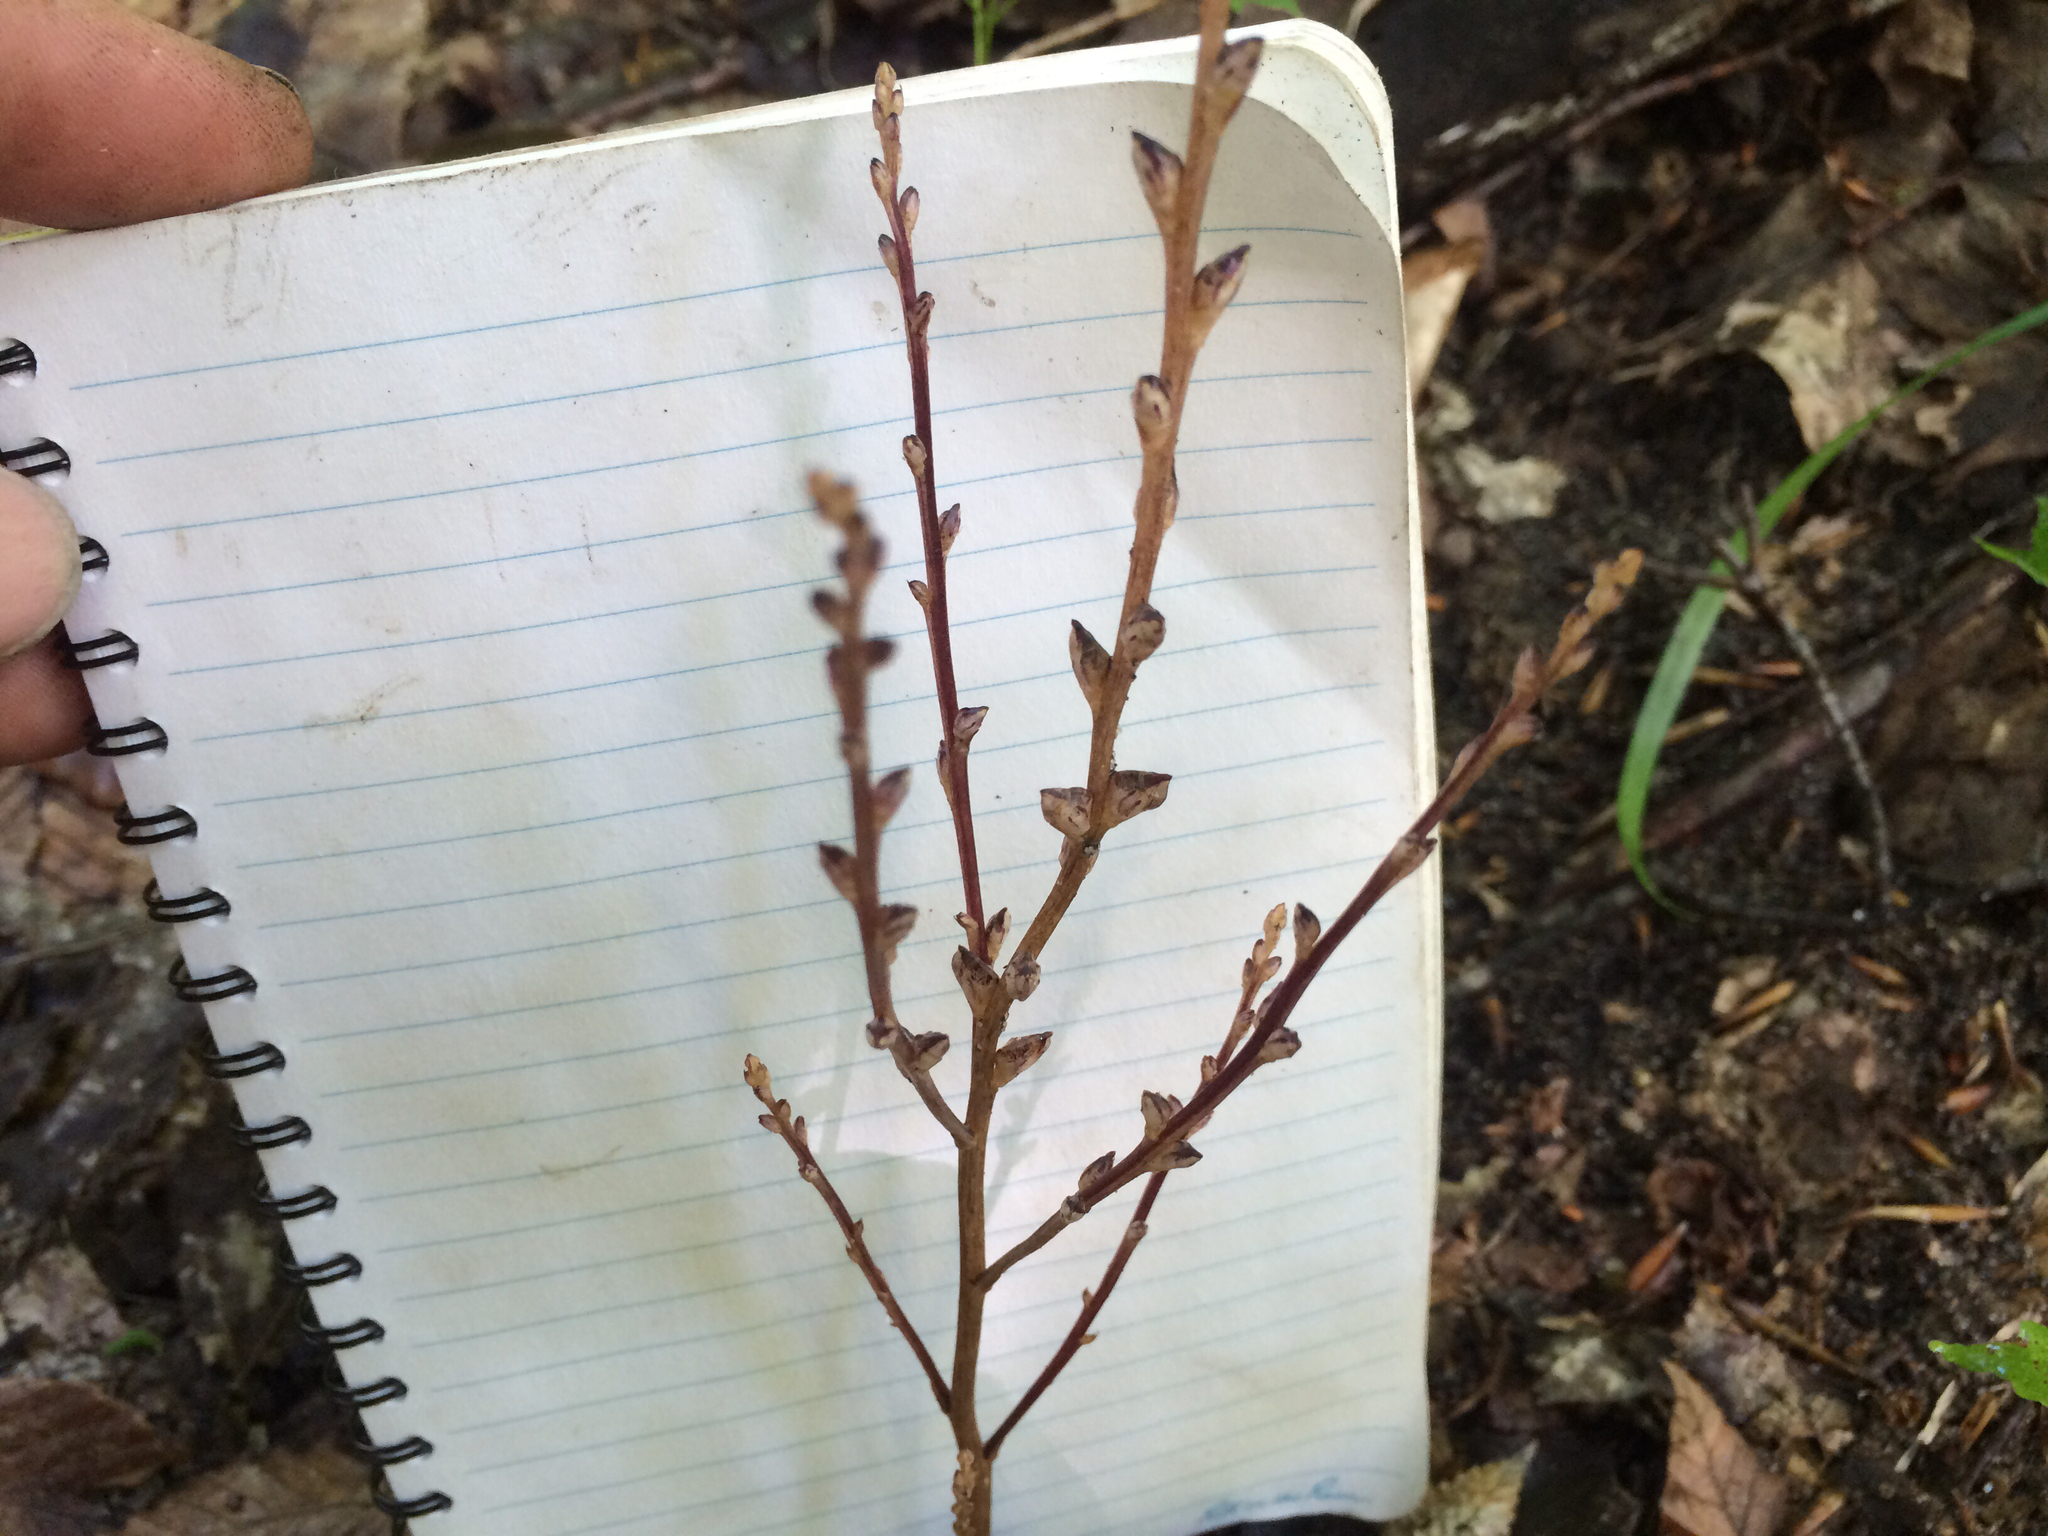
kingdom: Plantae
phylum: Tracheophyta
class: Magnoliopsida
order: Lamiales
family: Orobanchaceae
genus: Epifagus
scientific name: Epifagus virginiana
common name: Beechdrops
